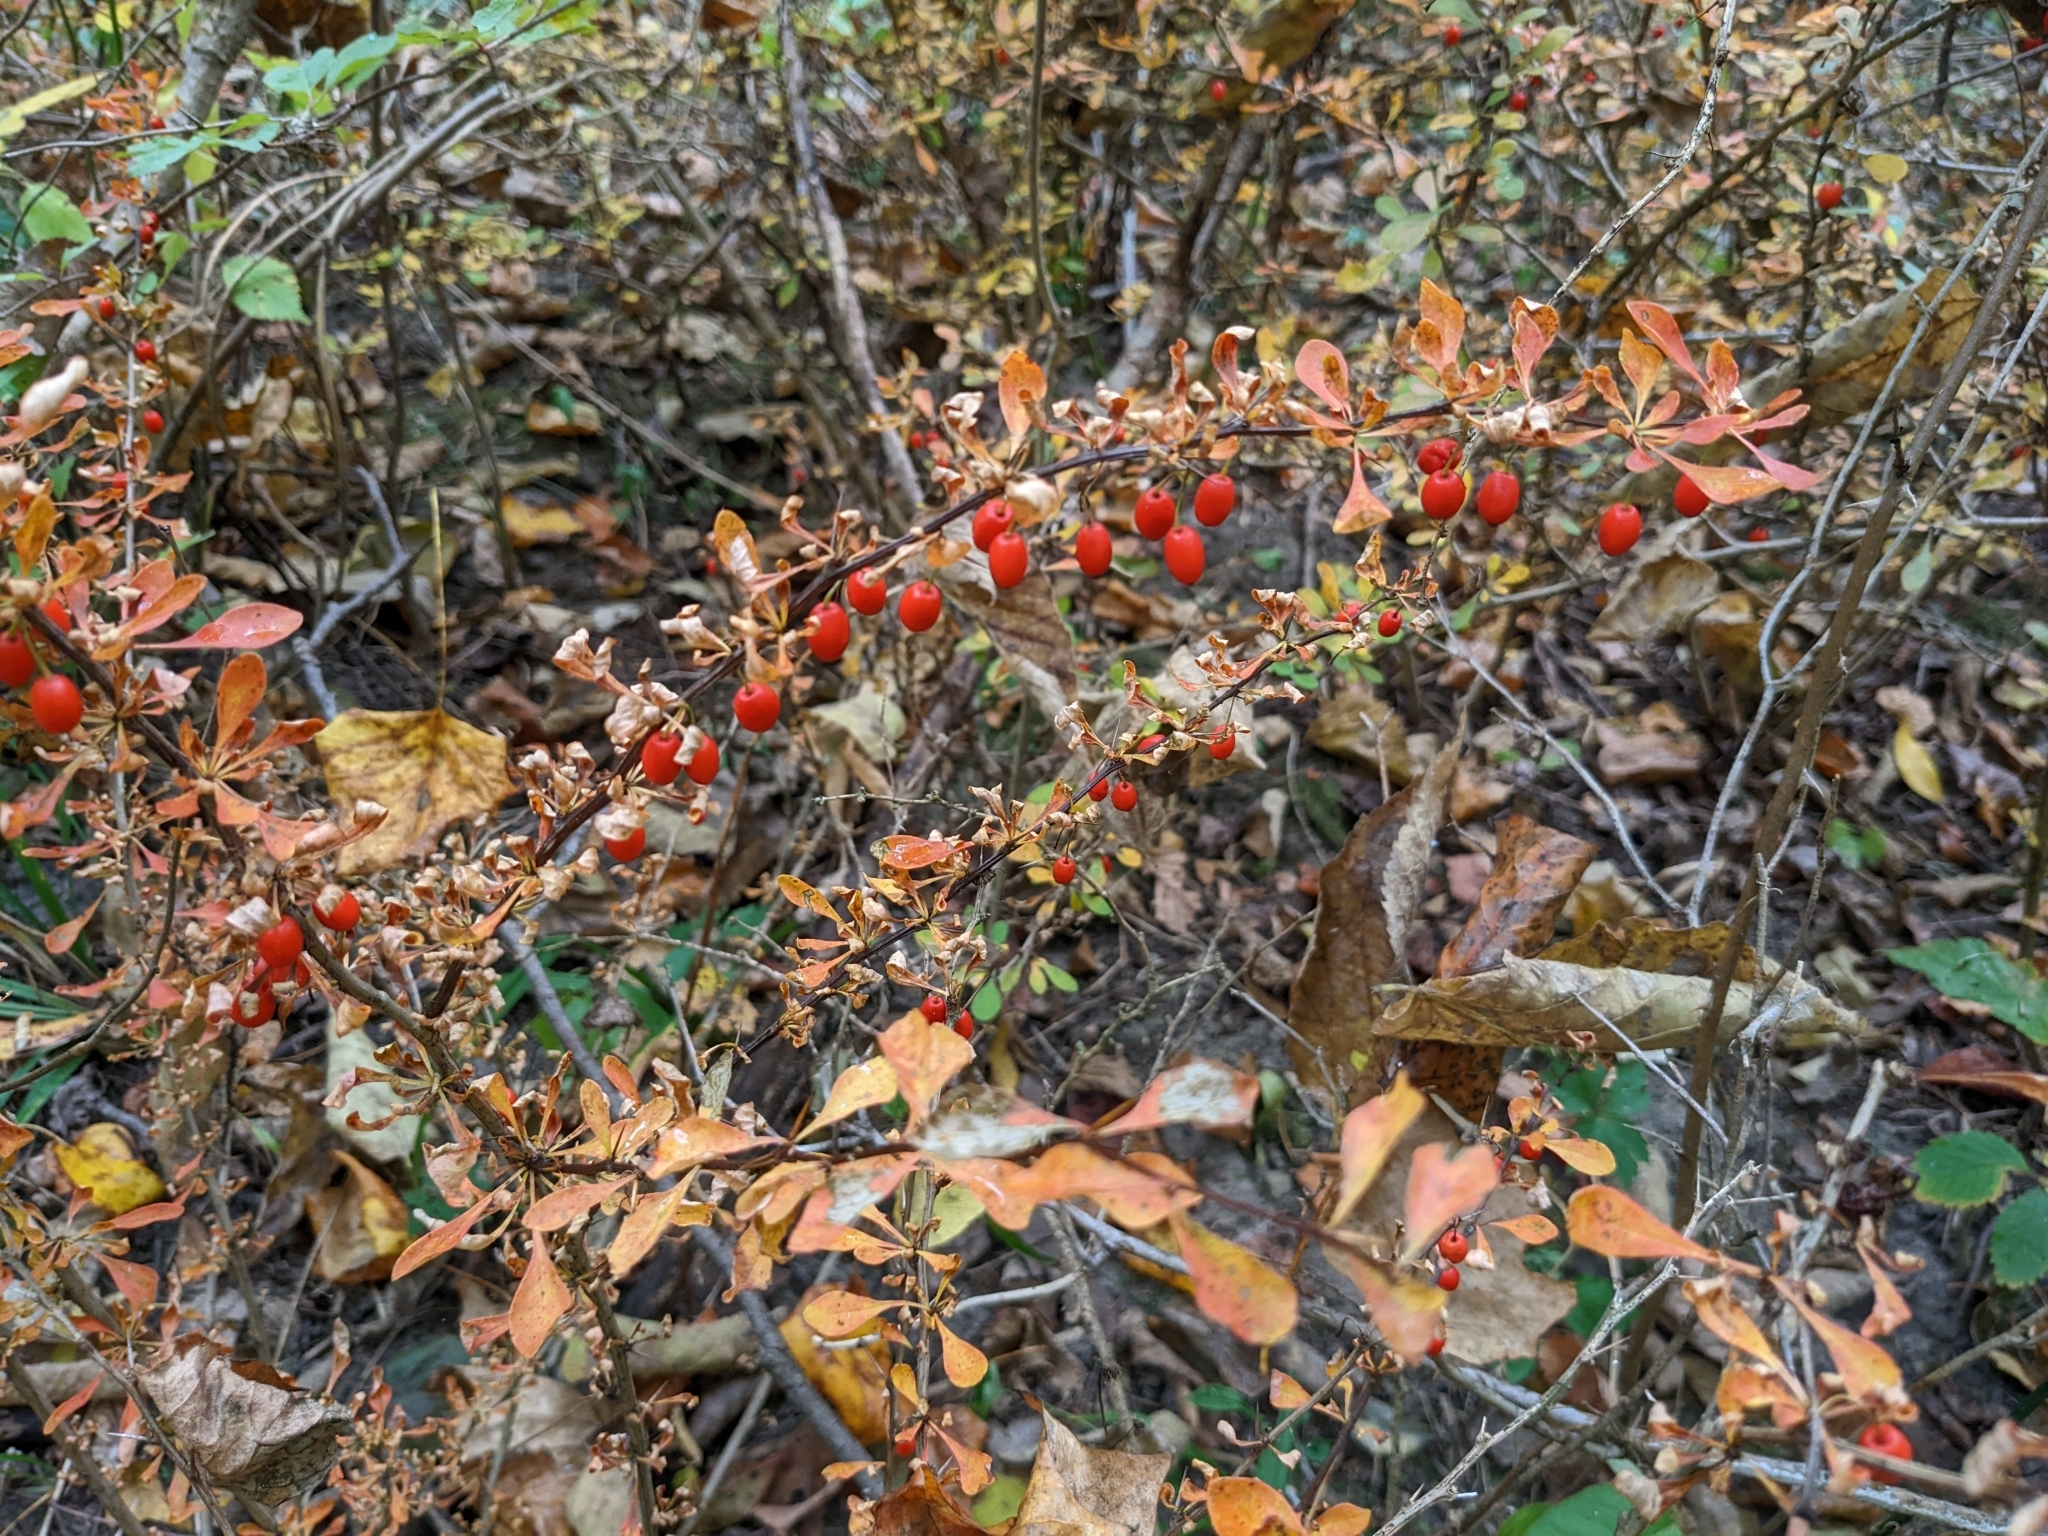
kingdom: Plantae
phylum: Tracheophyta
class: Magnoliopsida
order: Ranunculales
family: Berberidaceae
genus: Berberis
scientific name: Berberis thunbergii
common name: Japanese barberry
